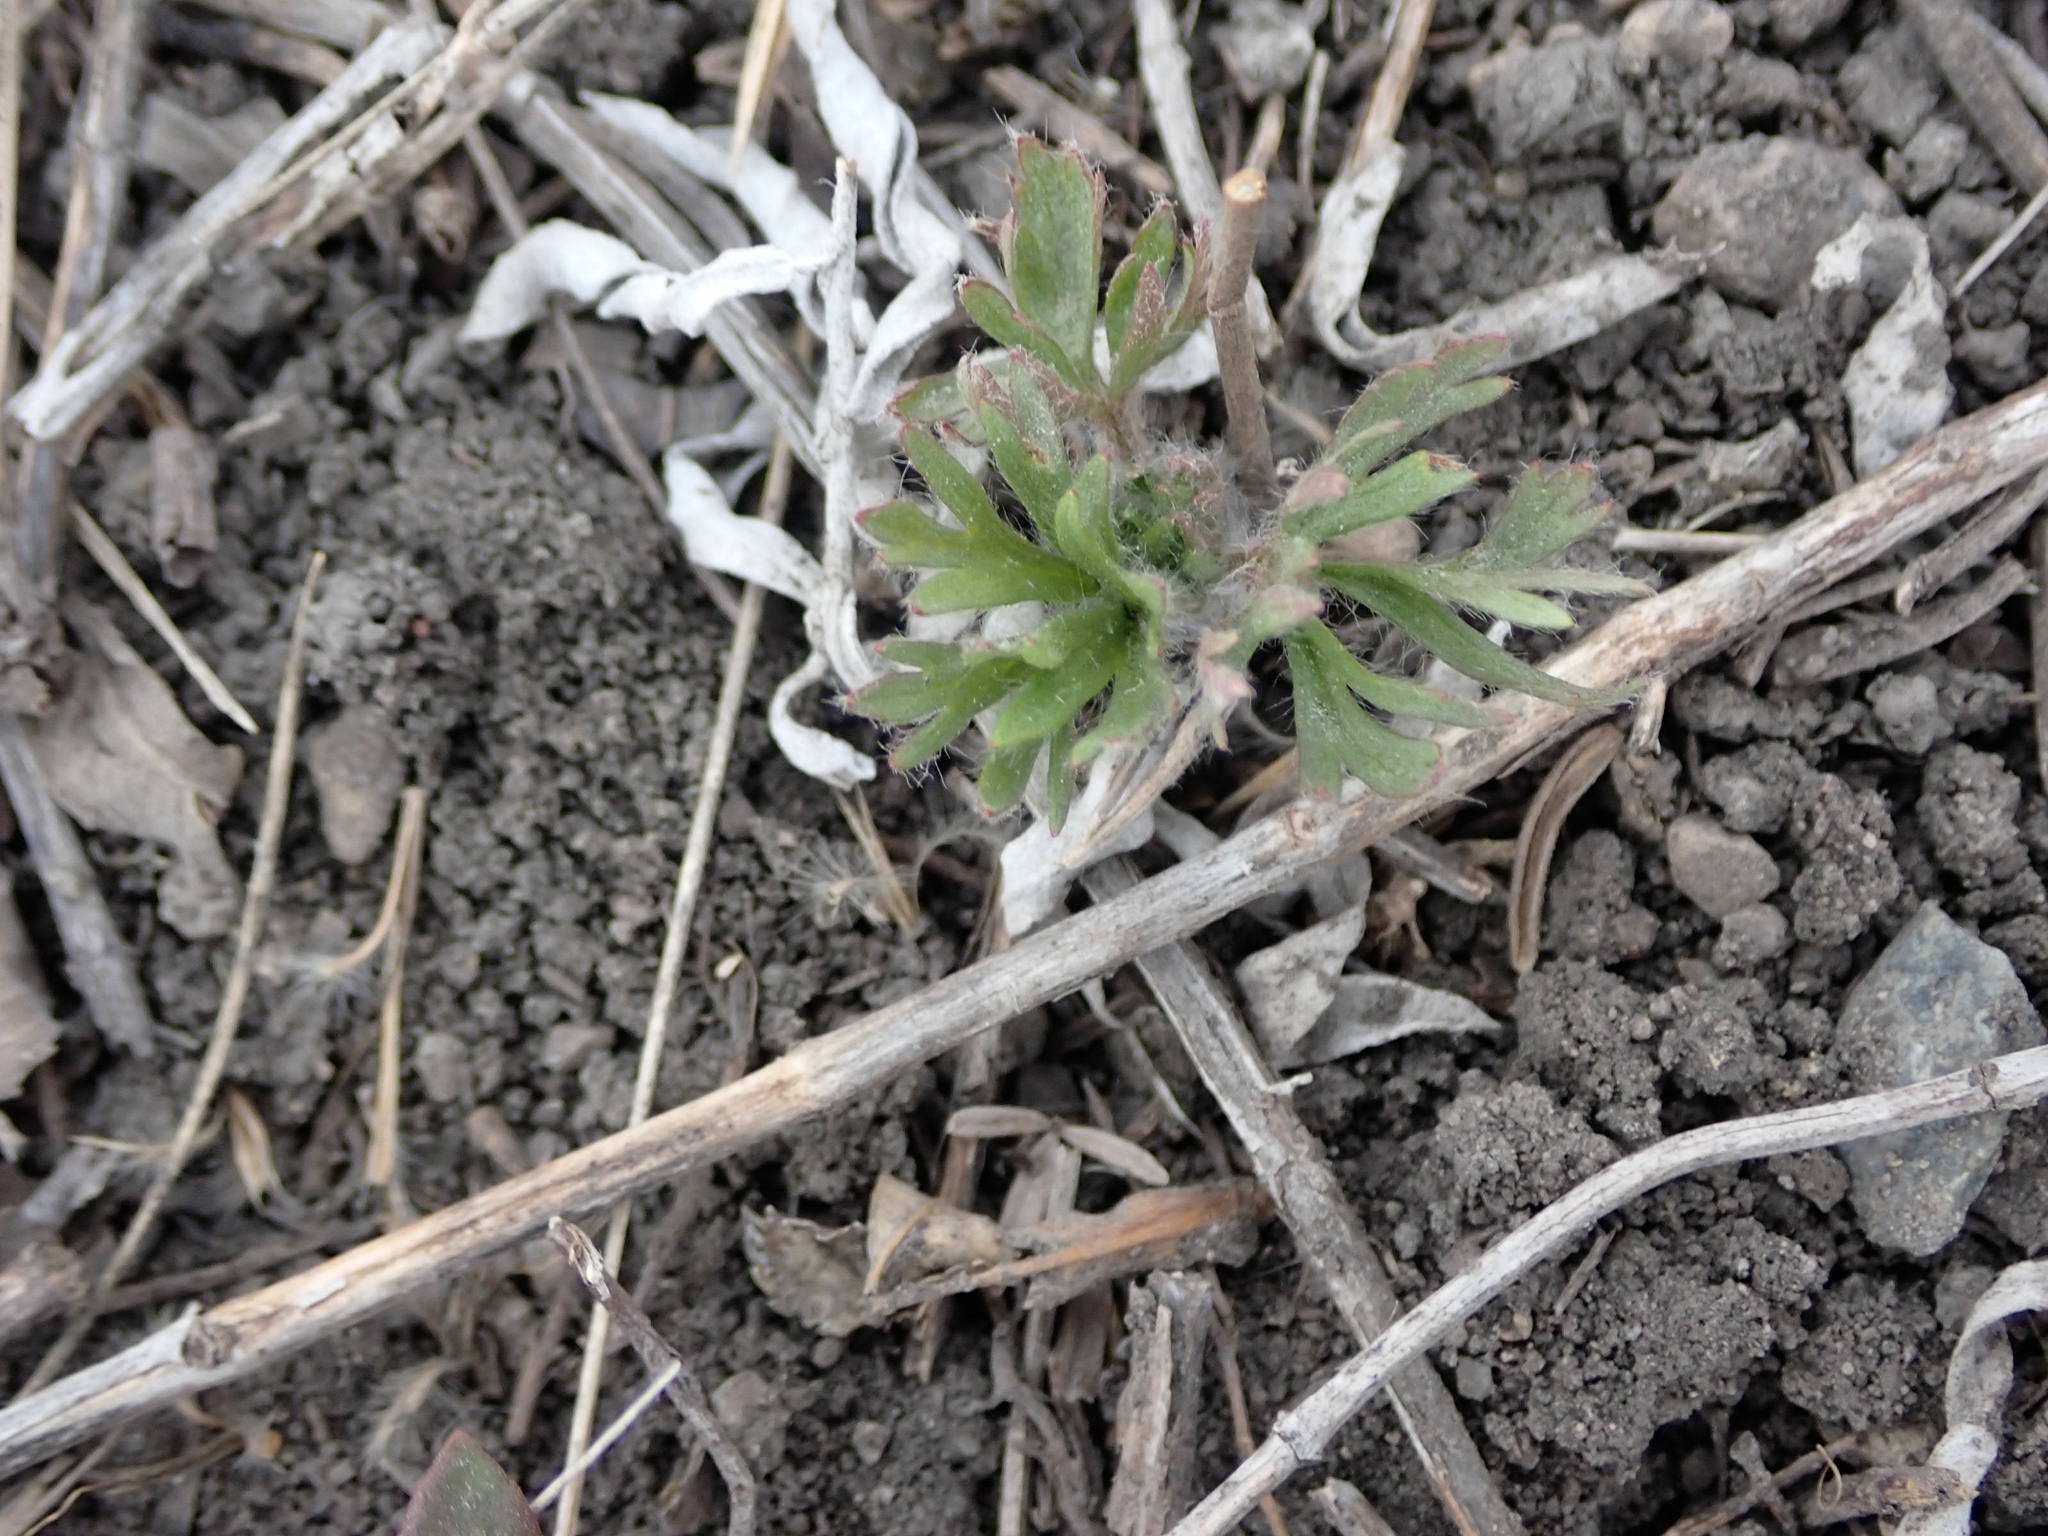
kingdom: Plantae
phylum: Tracheophyta
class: Magnoliopsida
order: Ranunculales
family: Ranunculaceae
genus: Anemone
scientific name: Anemone multifida
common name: Bird's-foot anemone
